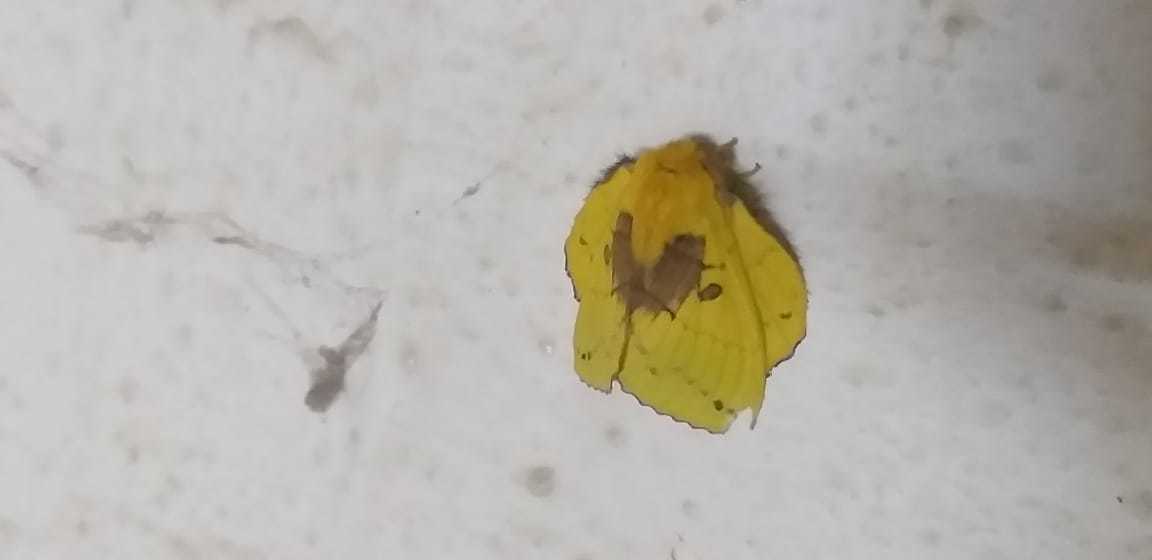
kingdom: Animalia
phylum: Arthropoda
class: Insecta
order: Lepidoptera
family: Lasiocampidae
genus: Trabala
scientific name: Trabala vishnou
